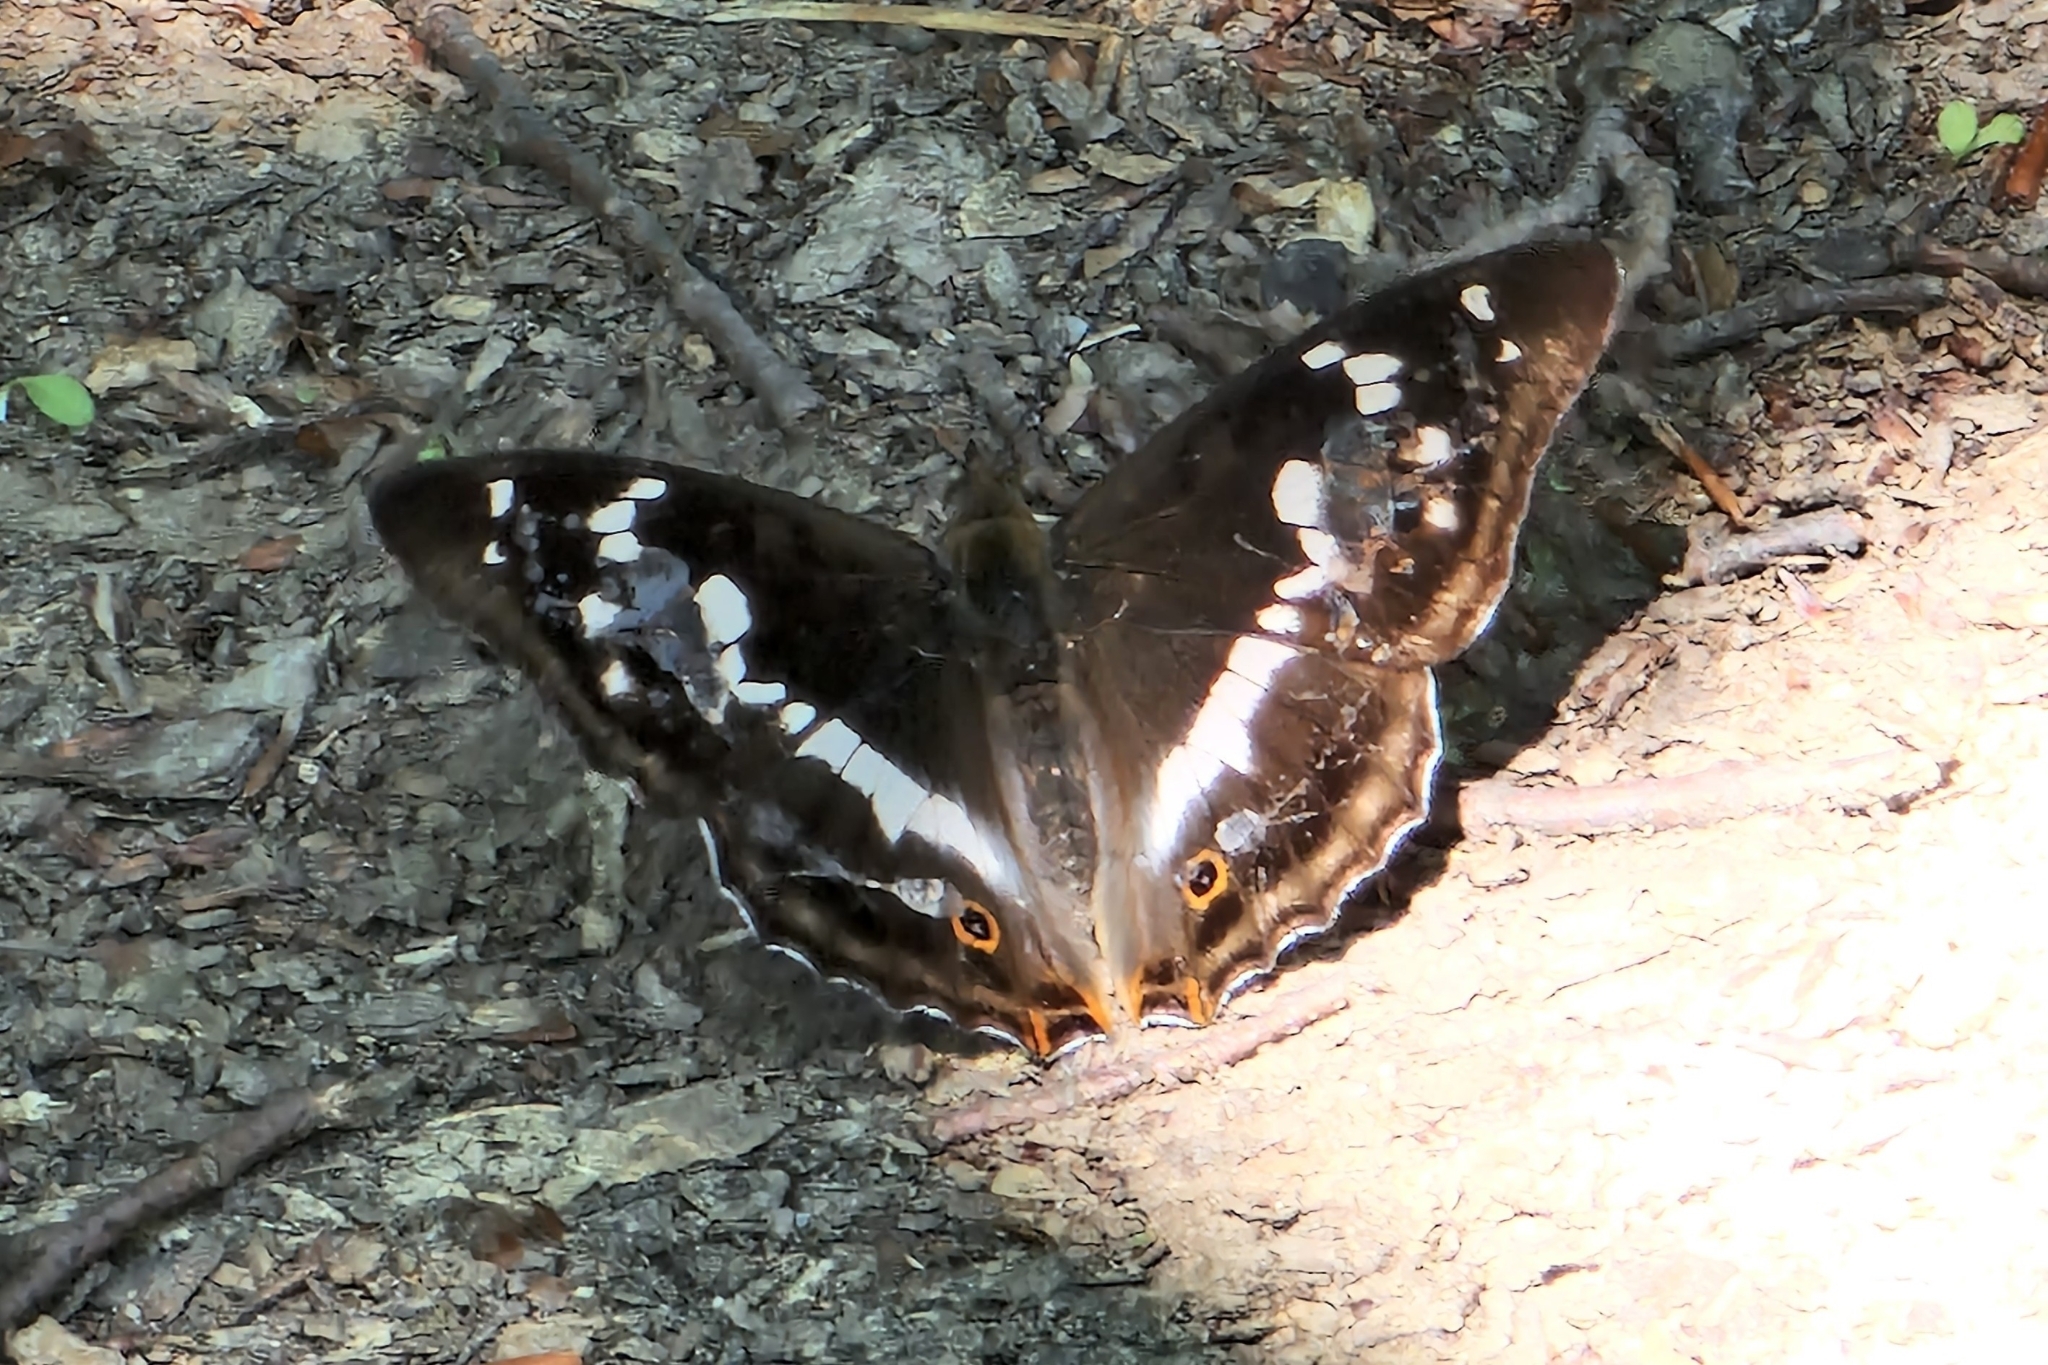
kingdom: Animalia
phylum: Arthropoda
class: Insecta
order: Lepidoptera
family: Nymphalidae
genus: Apatura
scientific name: Apatura iris
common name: Purple emperor
